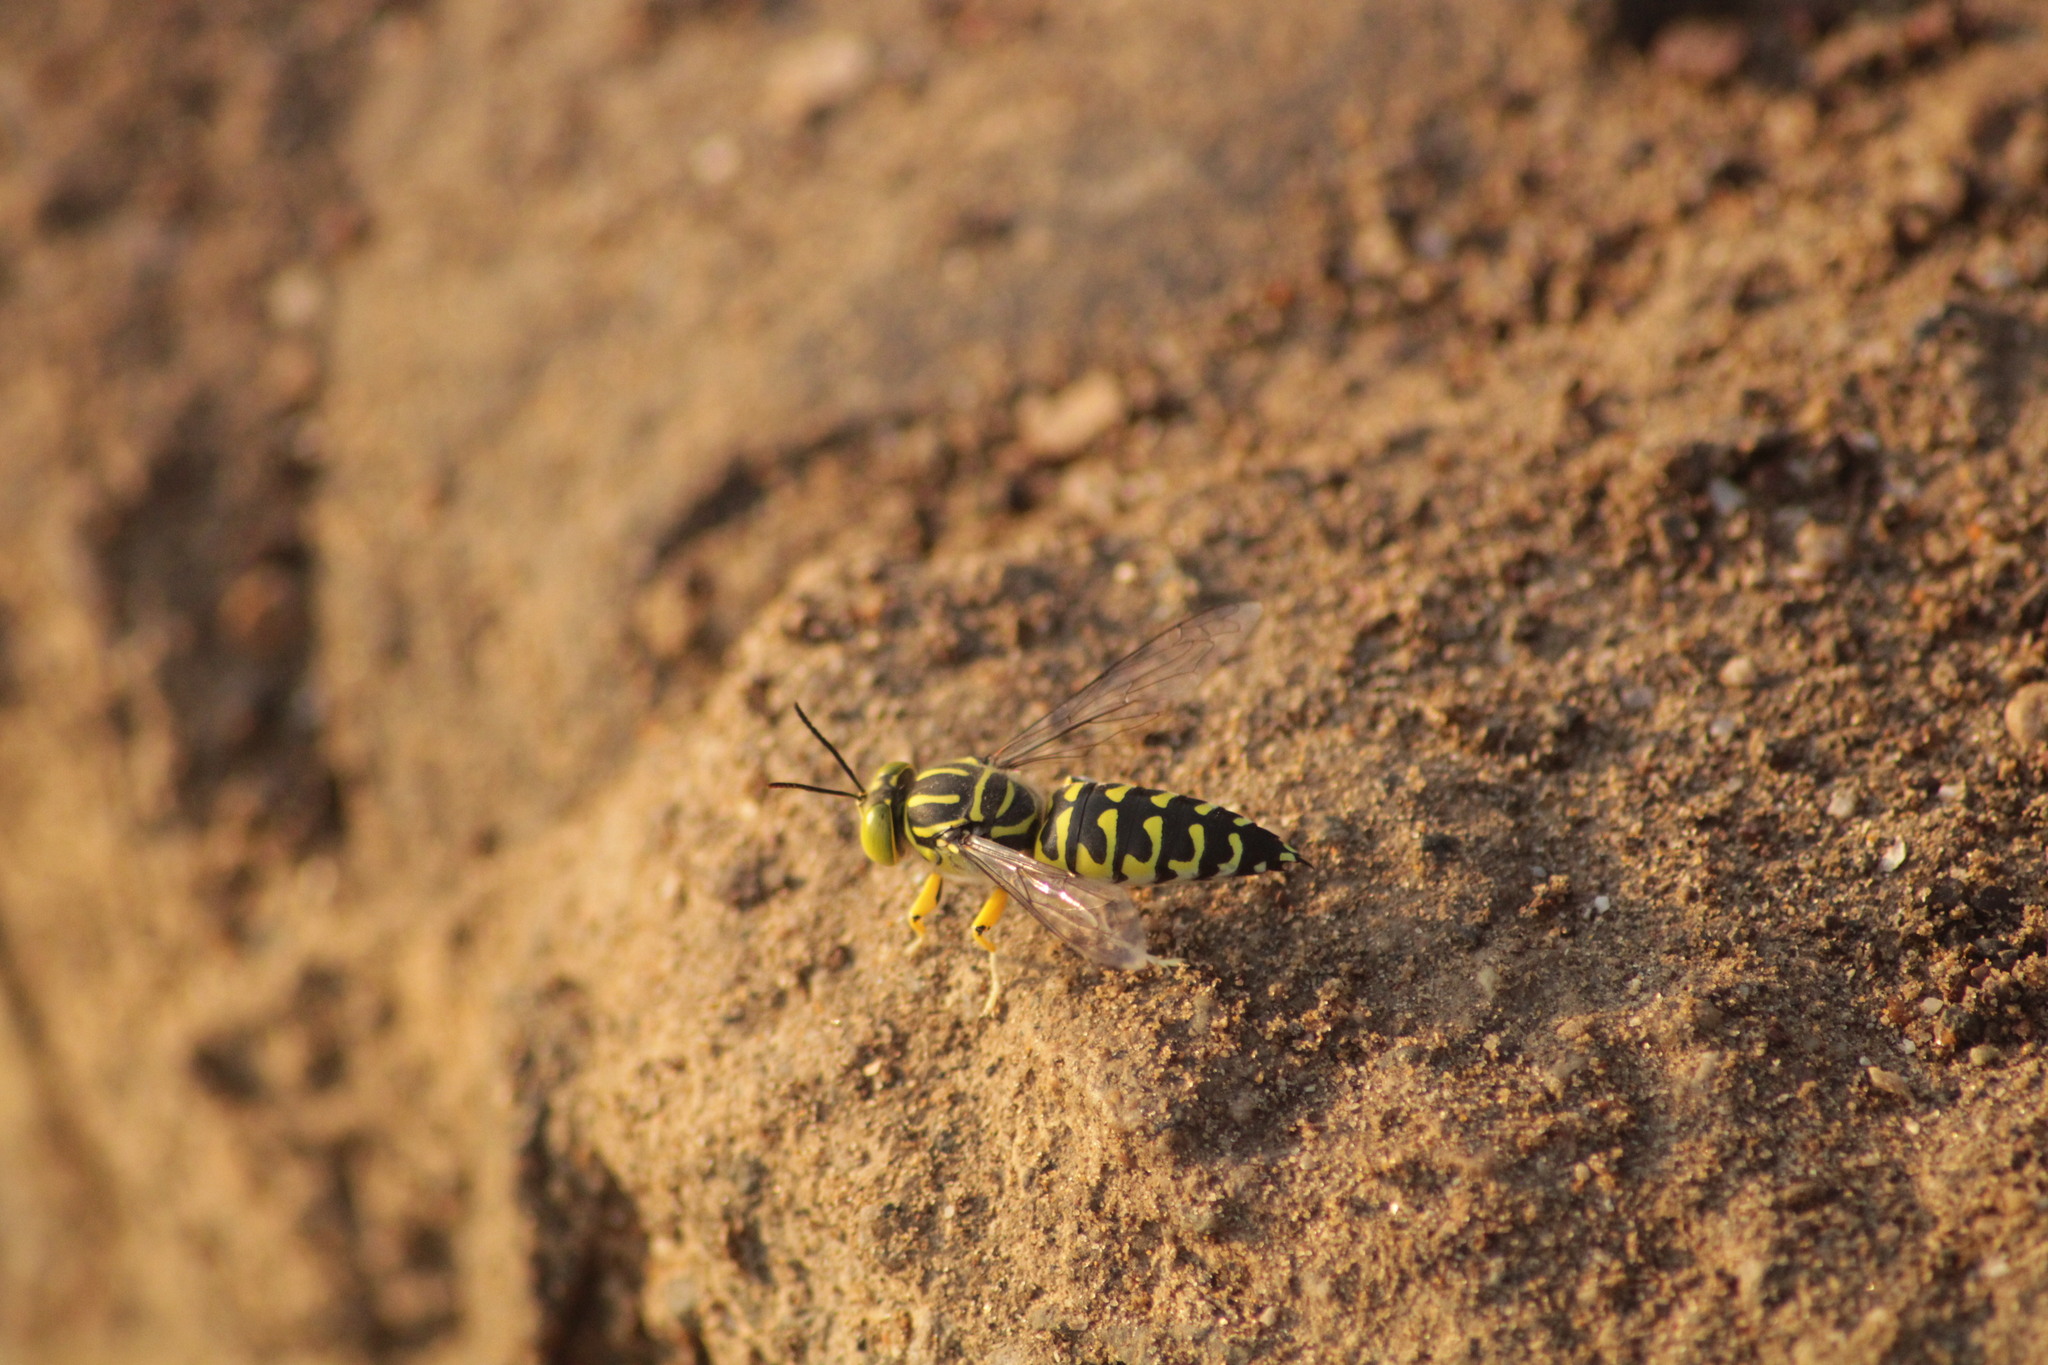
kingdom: Animalia
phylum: Arthropoda
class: Insecta
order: Hymenoptera
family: Crabronidae
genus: Stictia
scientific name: Stictia signata
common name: Sand wasp
